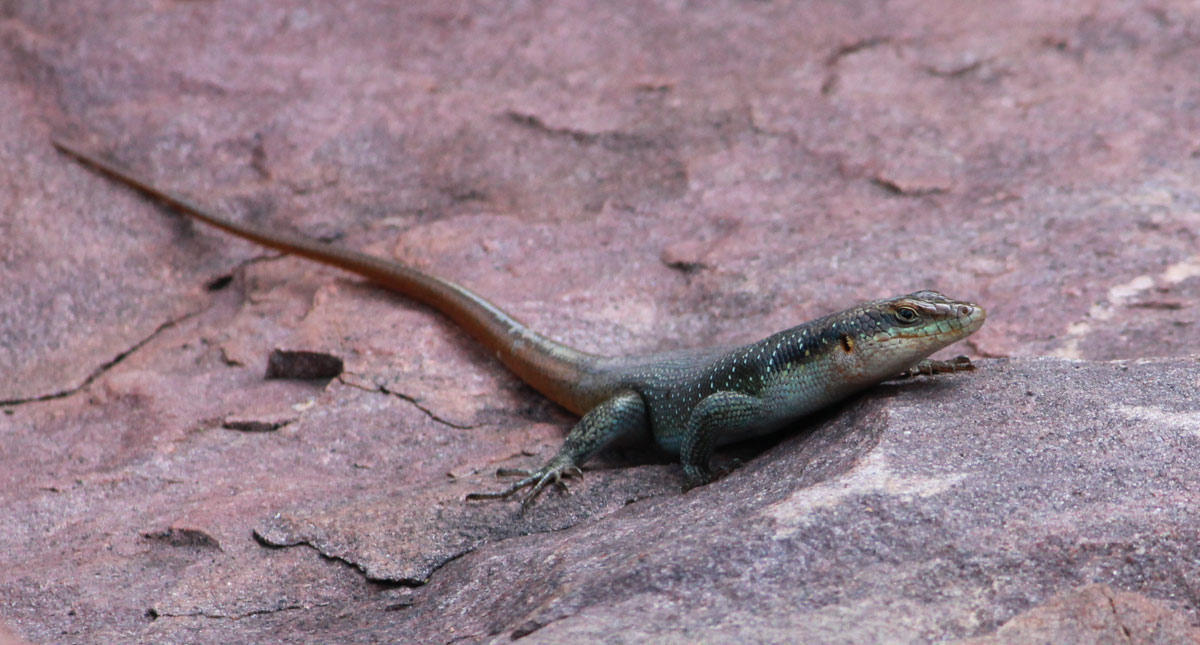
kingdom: Animalia
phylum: Chordata
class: Squamata
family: Scincidae
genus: Trachylepis
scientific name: Trachylepis margaritifera
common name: Rainbow skink
